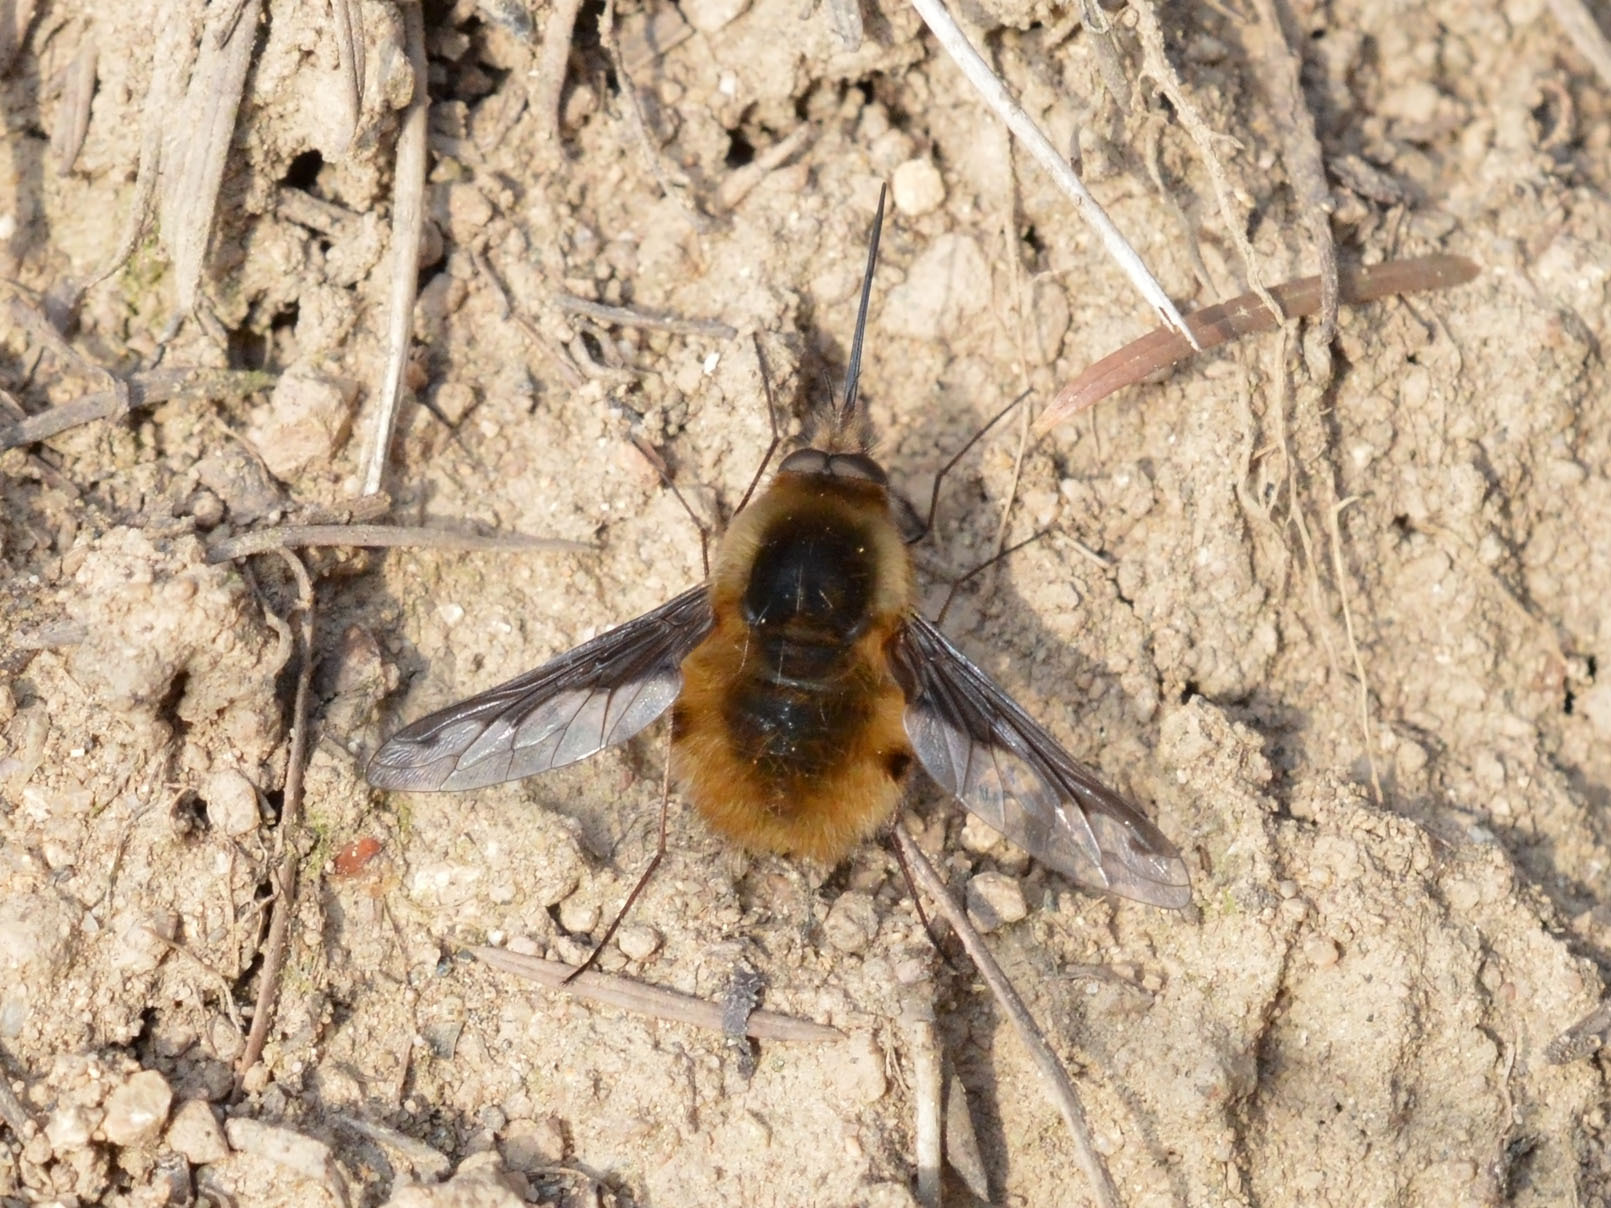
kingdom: Animalia
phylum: Arthropoda
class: Insecta
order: Diptera
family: Bombyliidae
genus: Bombylius
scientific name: Bombylius major
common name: Bee fly
